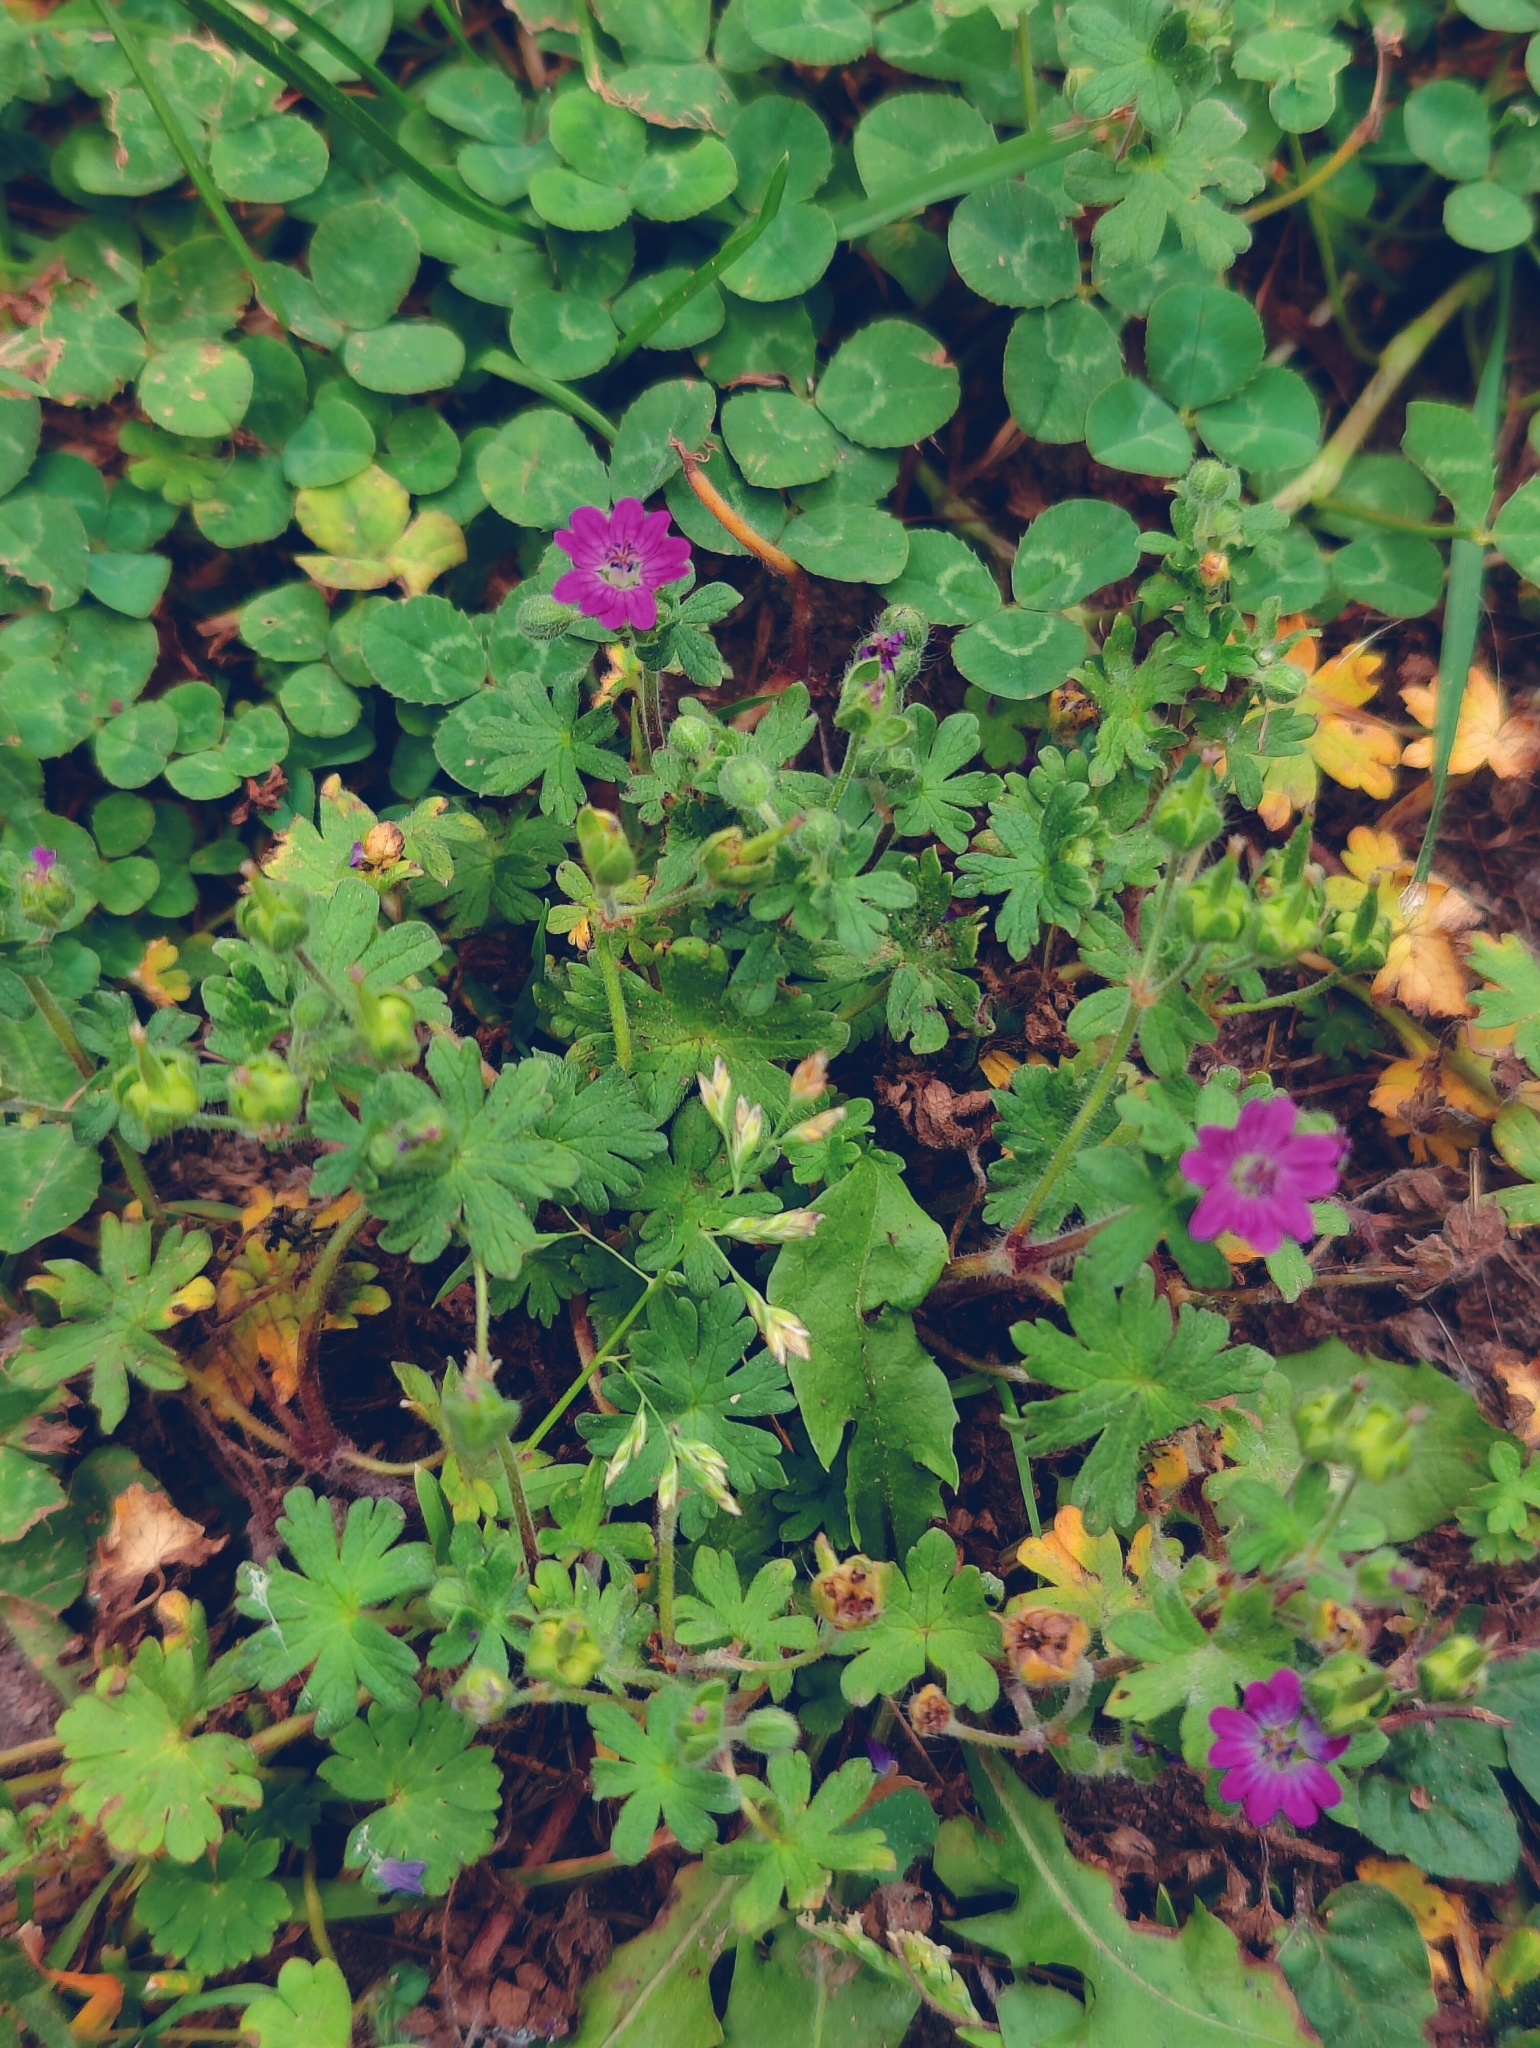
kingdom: Plantae
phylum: Tracheophyta
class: Magnoliopsida
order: Geraniales
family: Geraniaceae
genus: Geranium
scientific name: Geranium molle
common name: Dove's-foot crane's-bill
